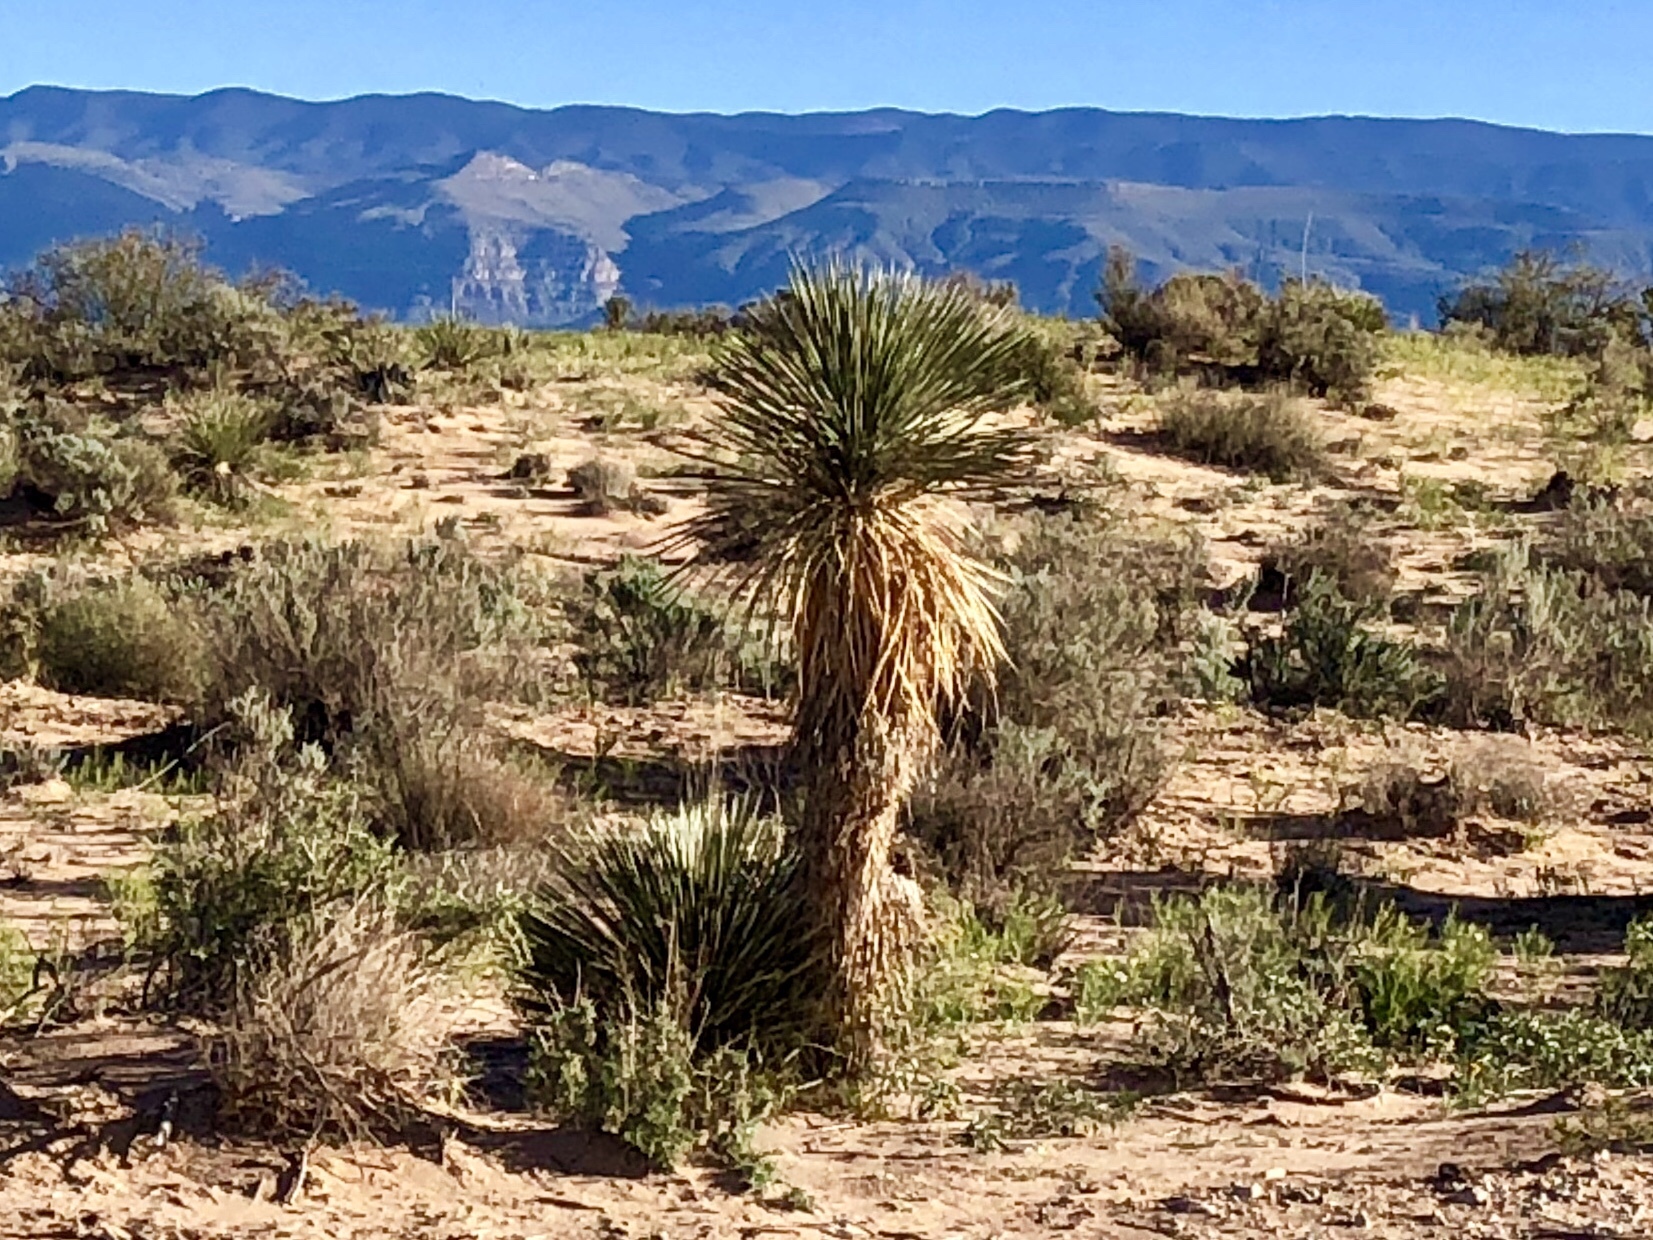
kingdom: Plantae
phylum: Tracheophyta
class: Liliopsida
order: Asparagales
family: Asparagaceae
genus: Yucca
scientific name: Yucca elata
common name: Palmella
